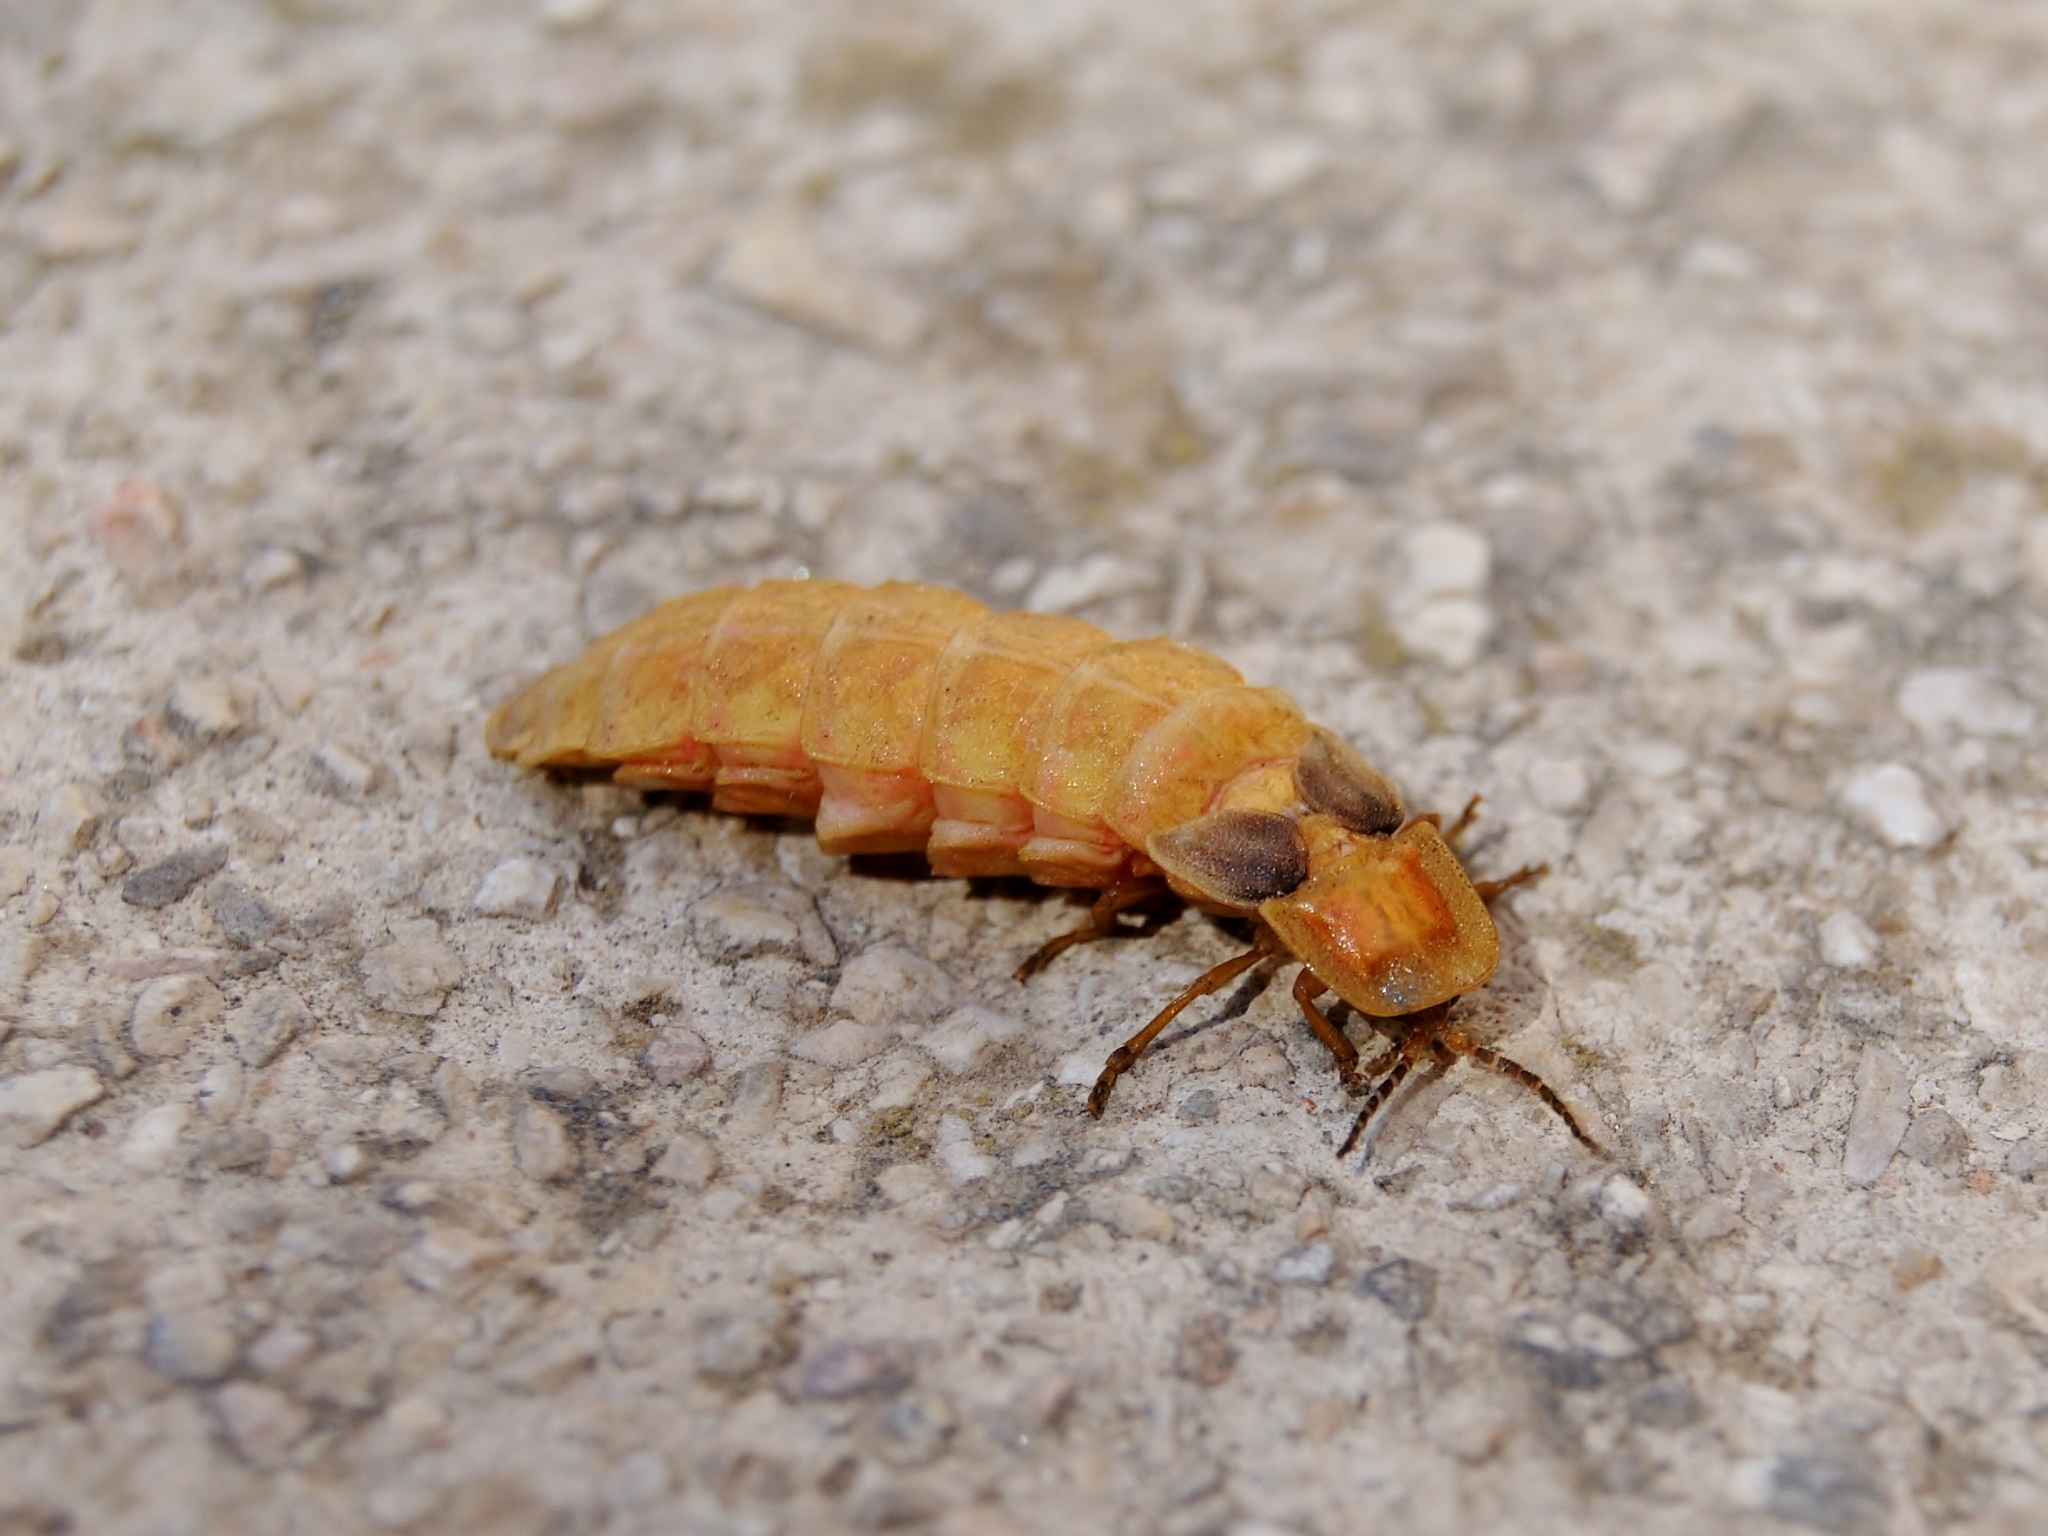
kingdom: Animalia
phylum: Arthropoda
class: Insecta
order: Coleoptera
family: Lampyridae
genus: Nyctophila
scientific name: Nyctophila syriaca
